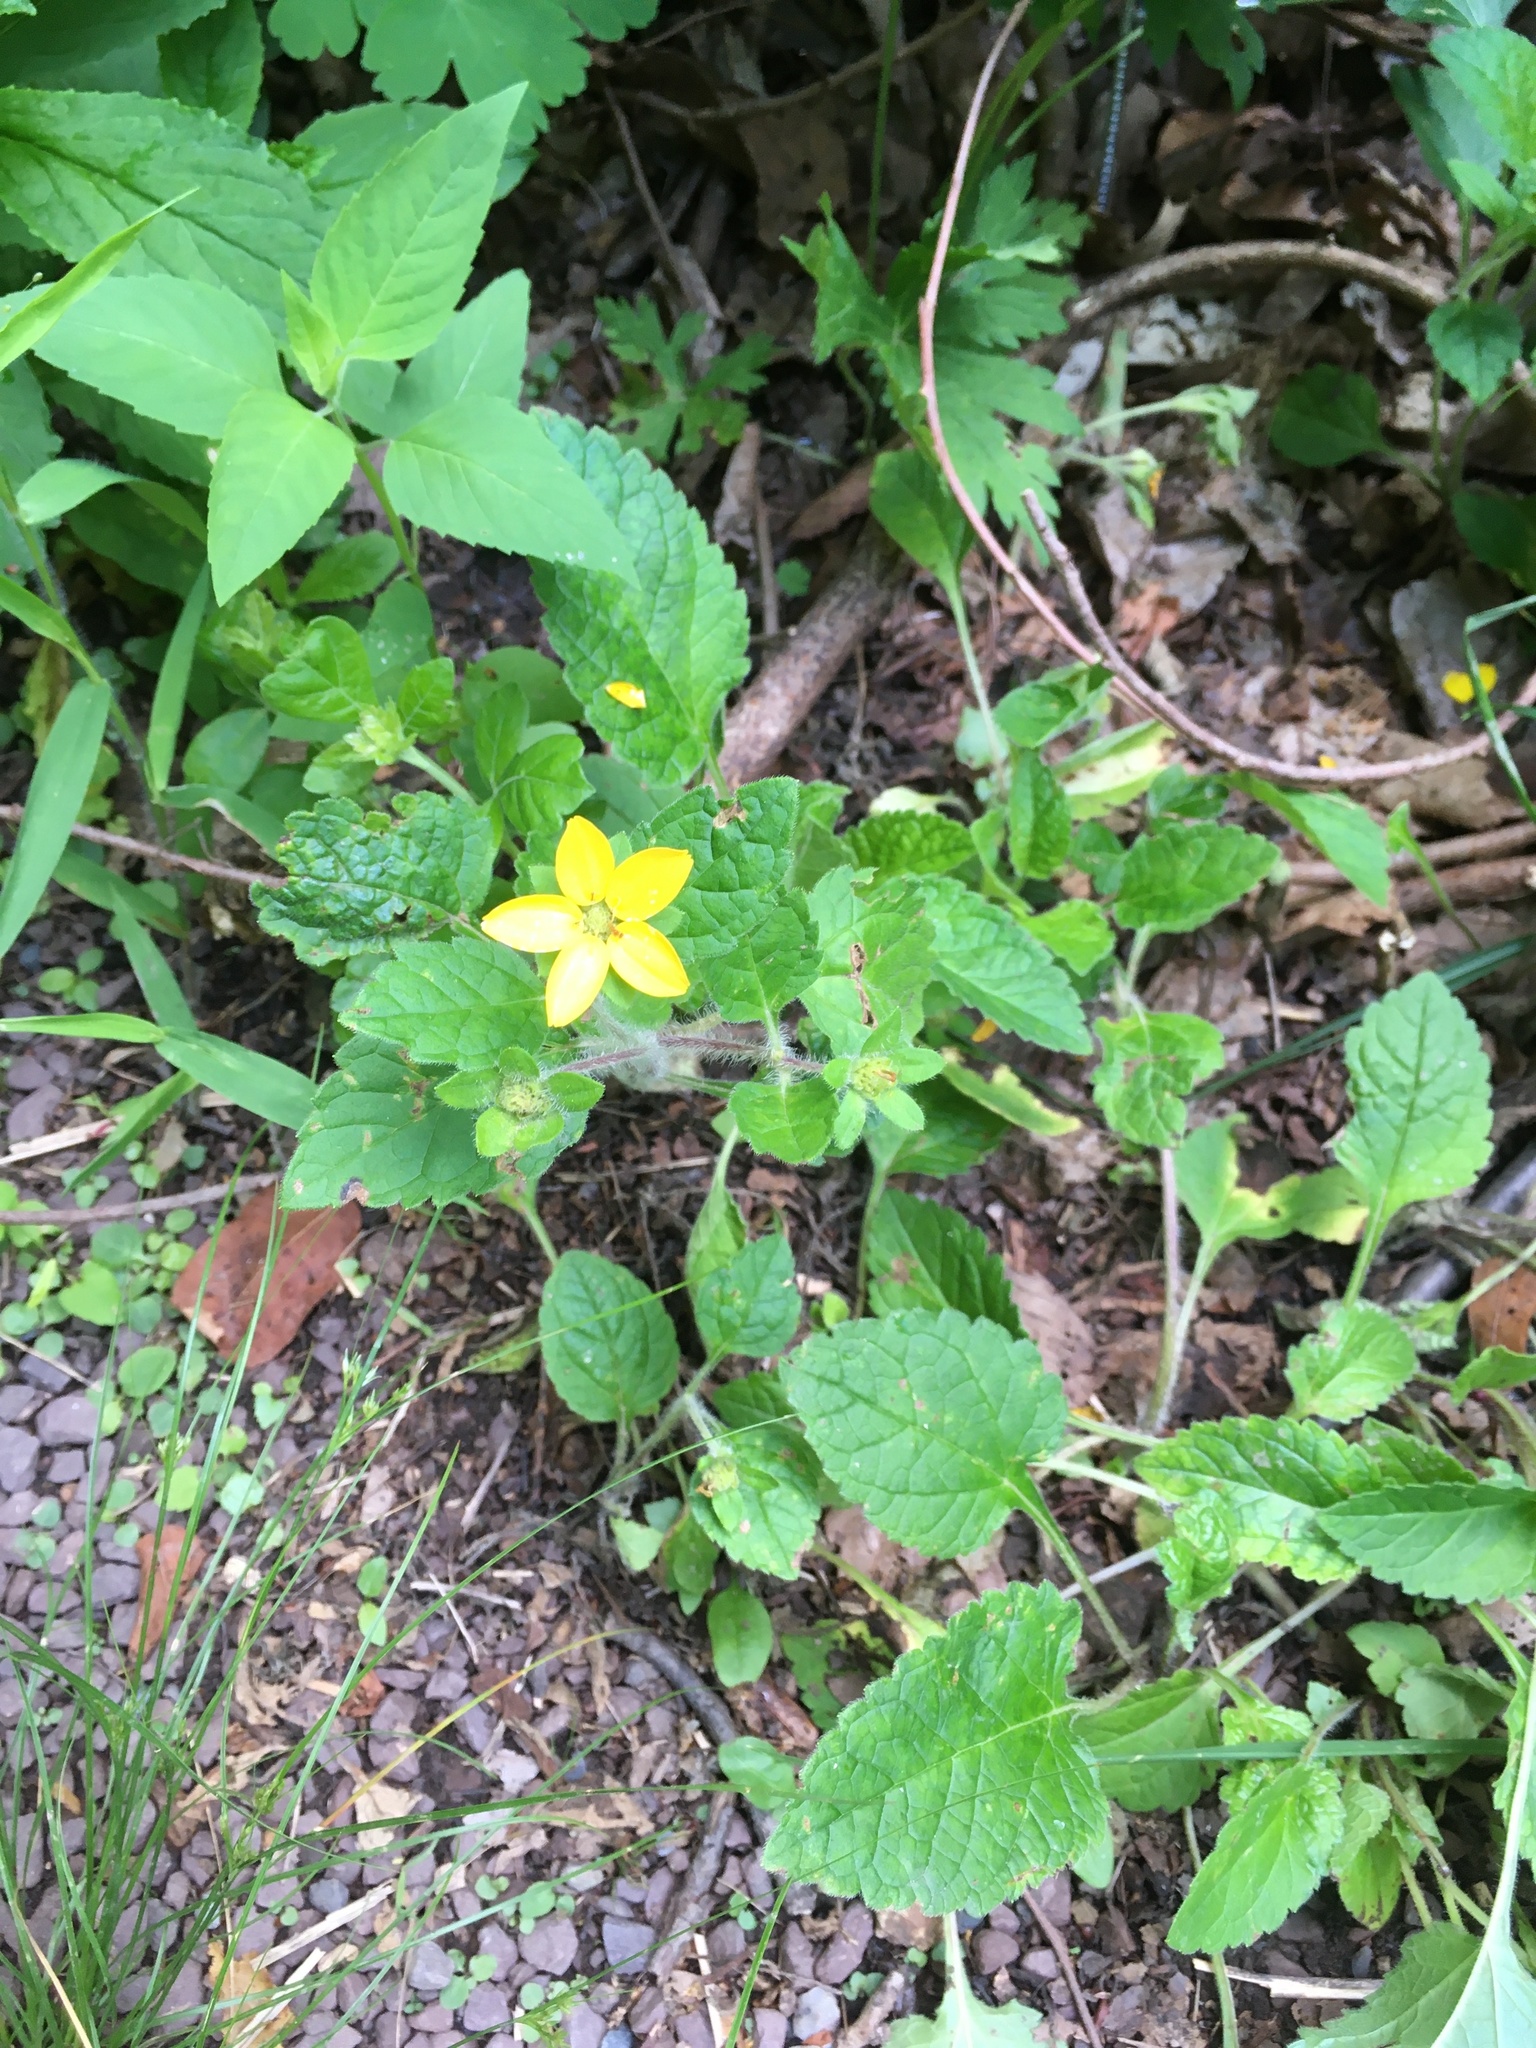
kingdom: Plantae
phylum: Tracheophyta
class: Magnoliopsida
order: Asterales
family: Asteraceae
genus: Chrysogonum
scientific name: Chrysogonum virginianum
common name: Golden-knee
